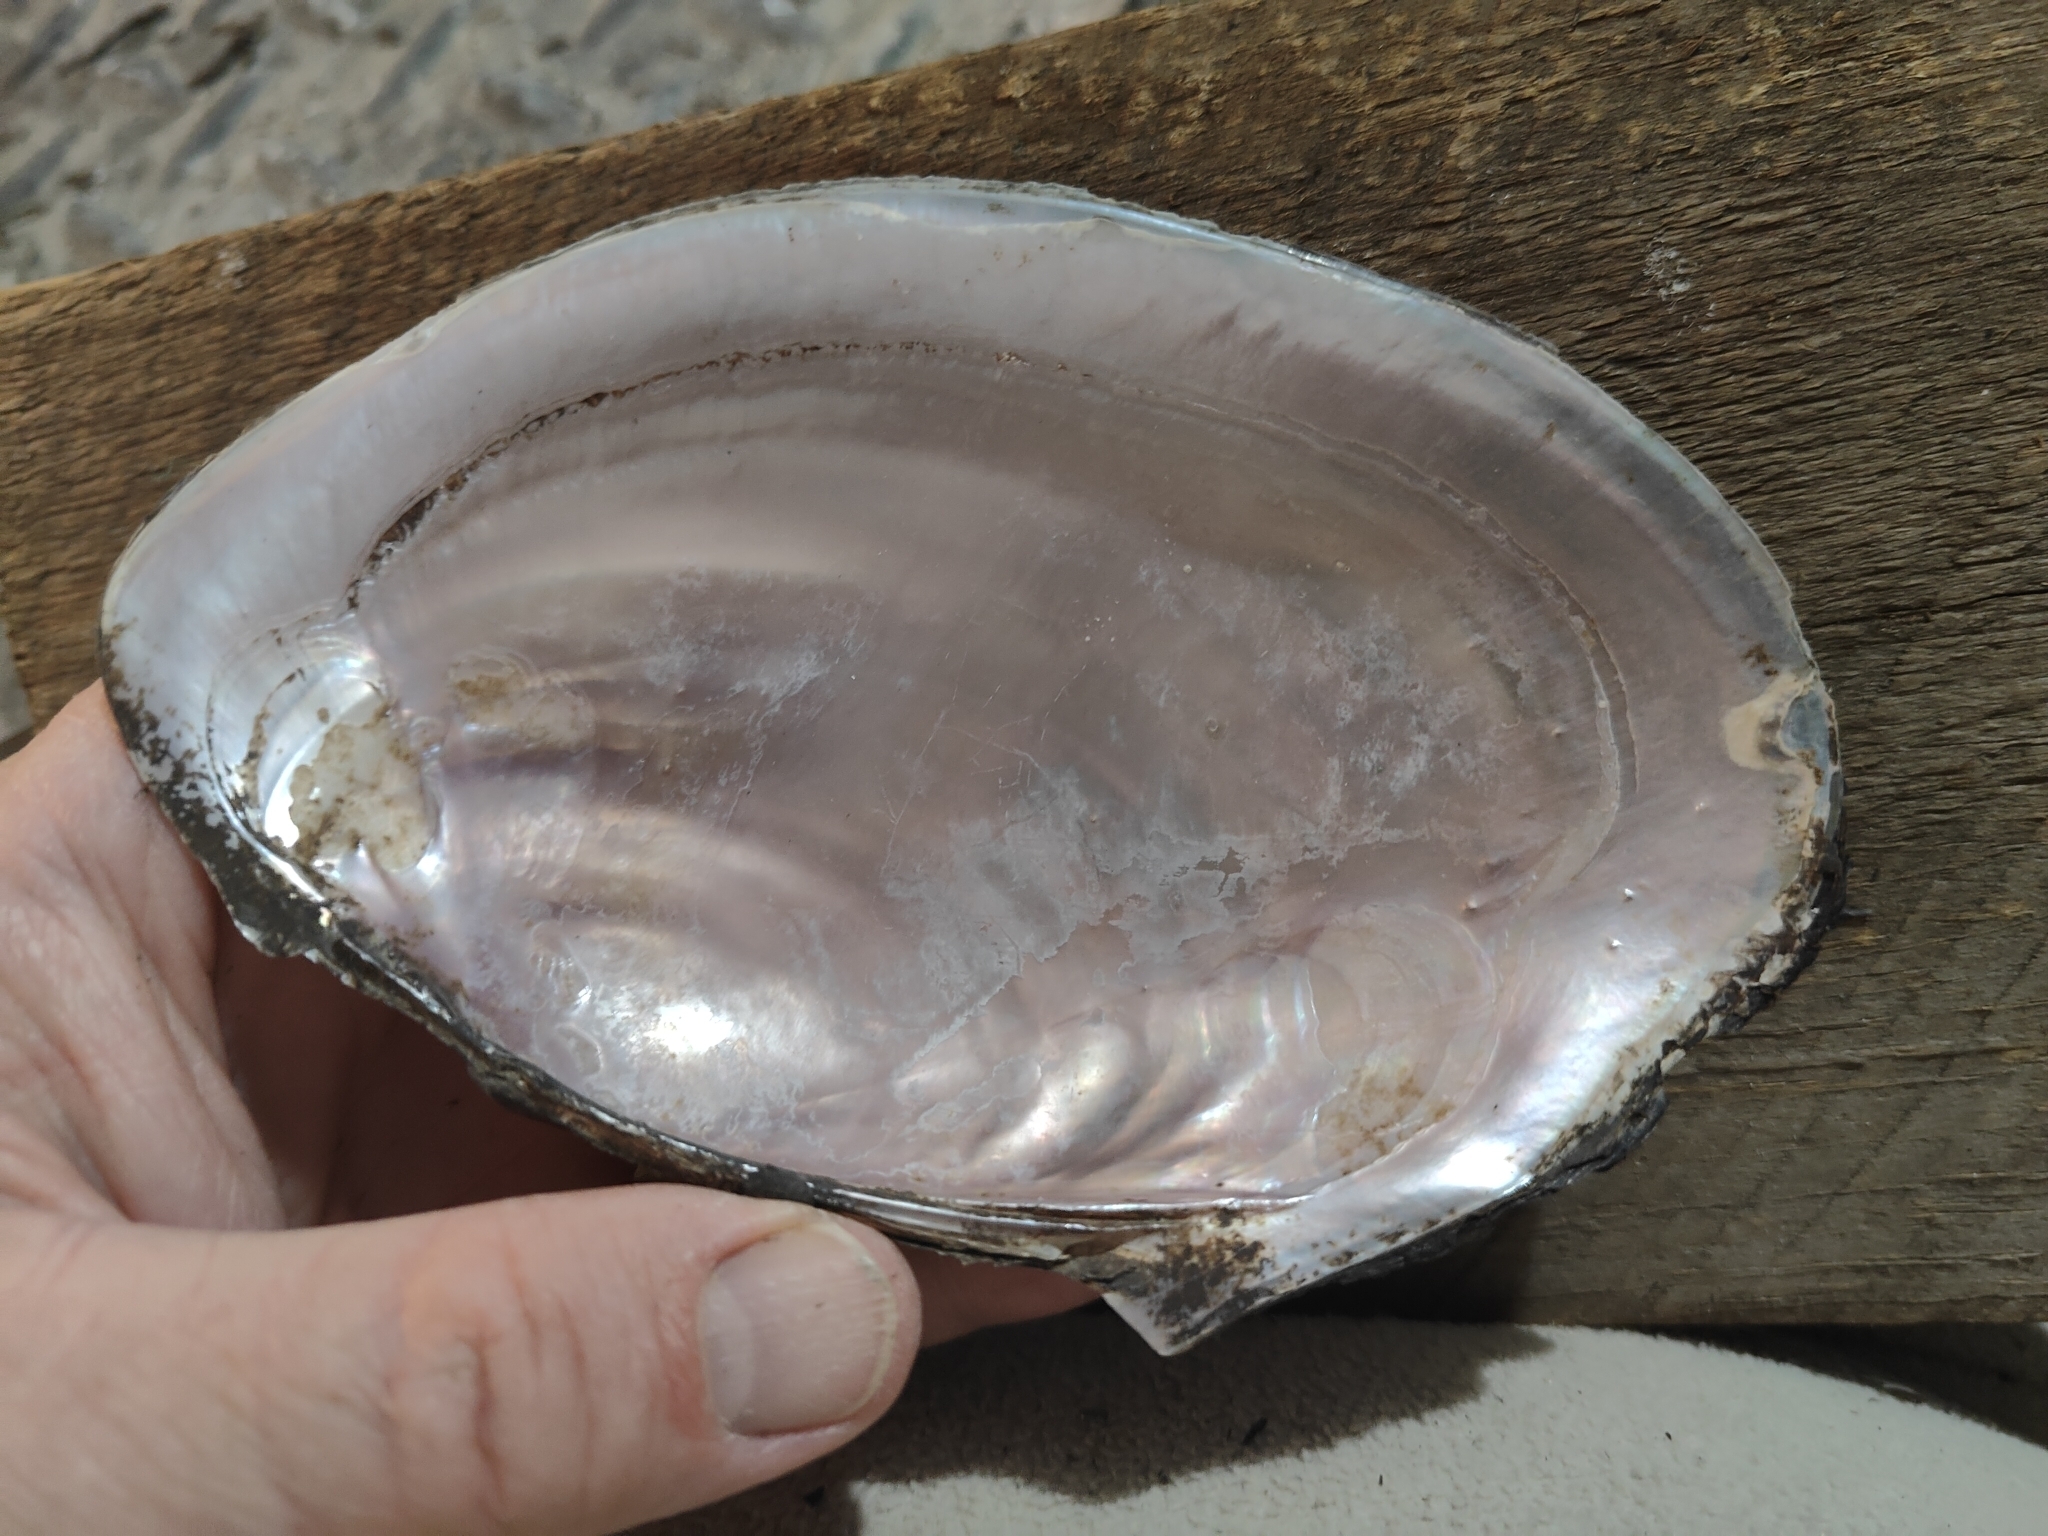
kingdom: Animalia
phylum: Mollusca
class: Bivalvia
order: Unionida
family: Unionidae
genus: Potamilus
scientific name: Potamilus ohiensis
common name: Pink papershell
